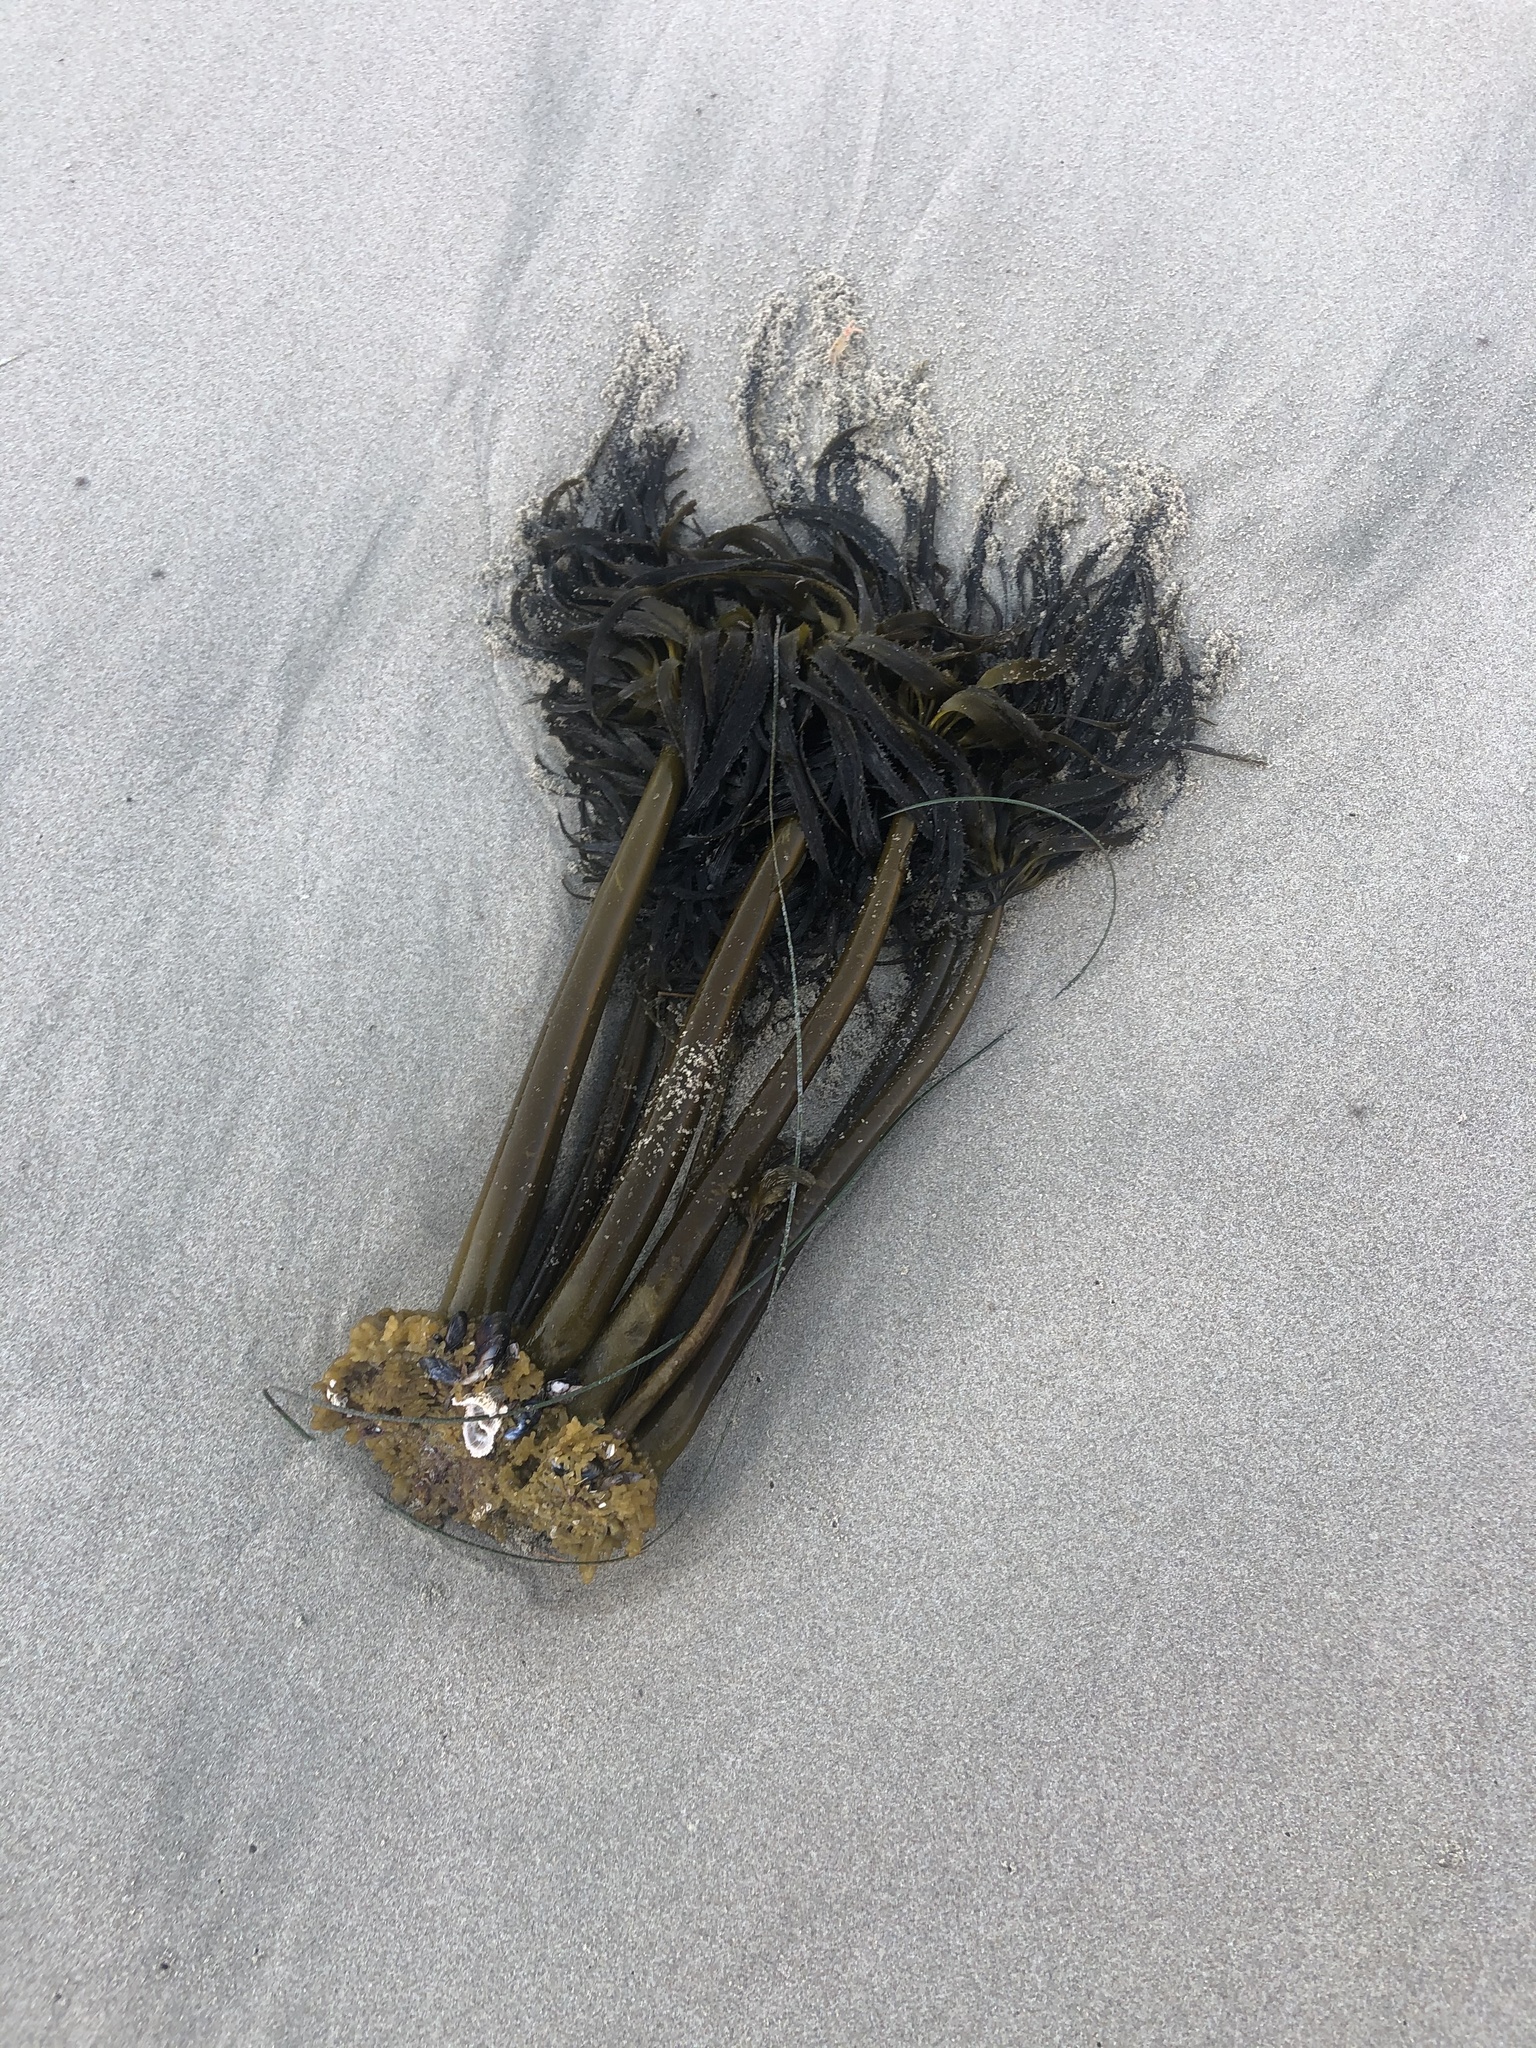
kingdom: Chromista
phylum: Ochrophyta
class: Phaeophyceae
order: Laminariales
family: Laminariaceae
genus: Postelsia
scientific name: Postelsia palmiformis
